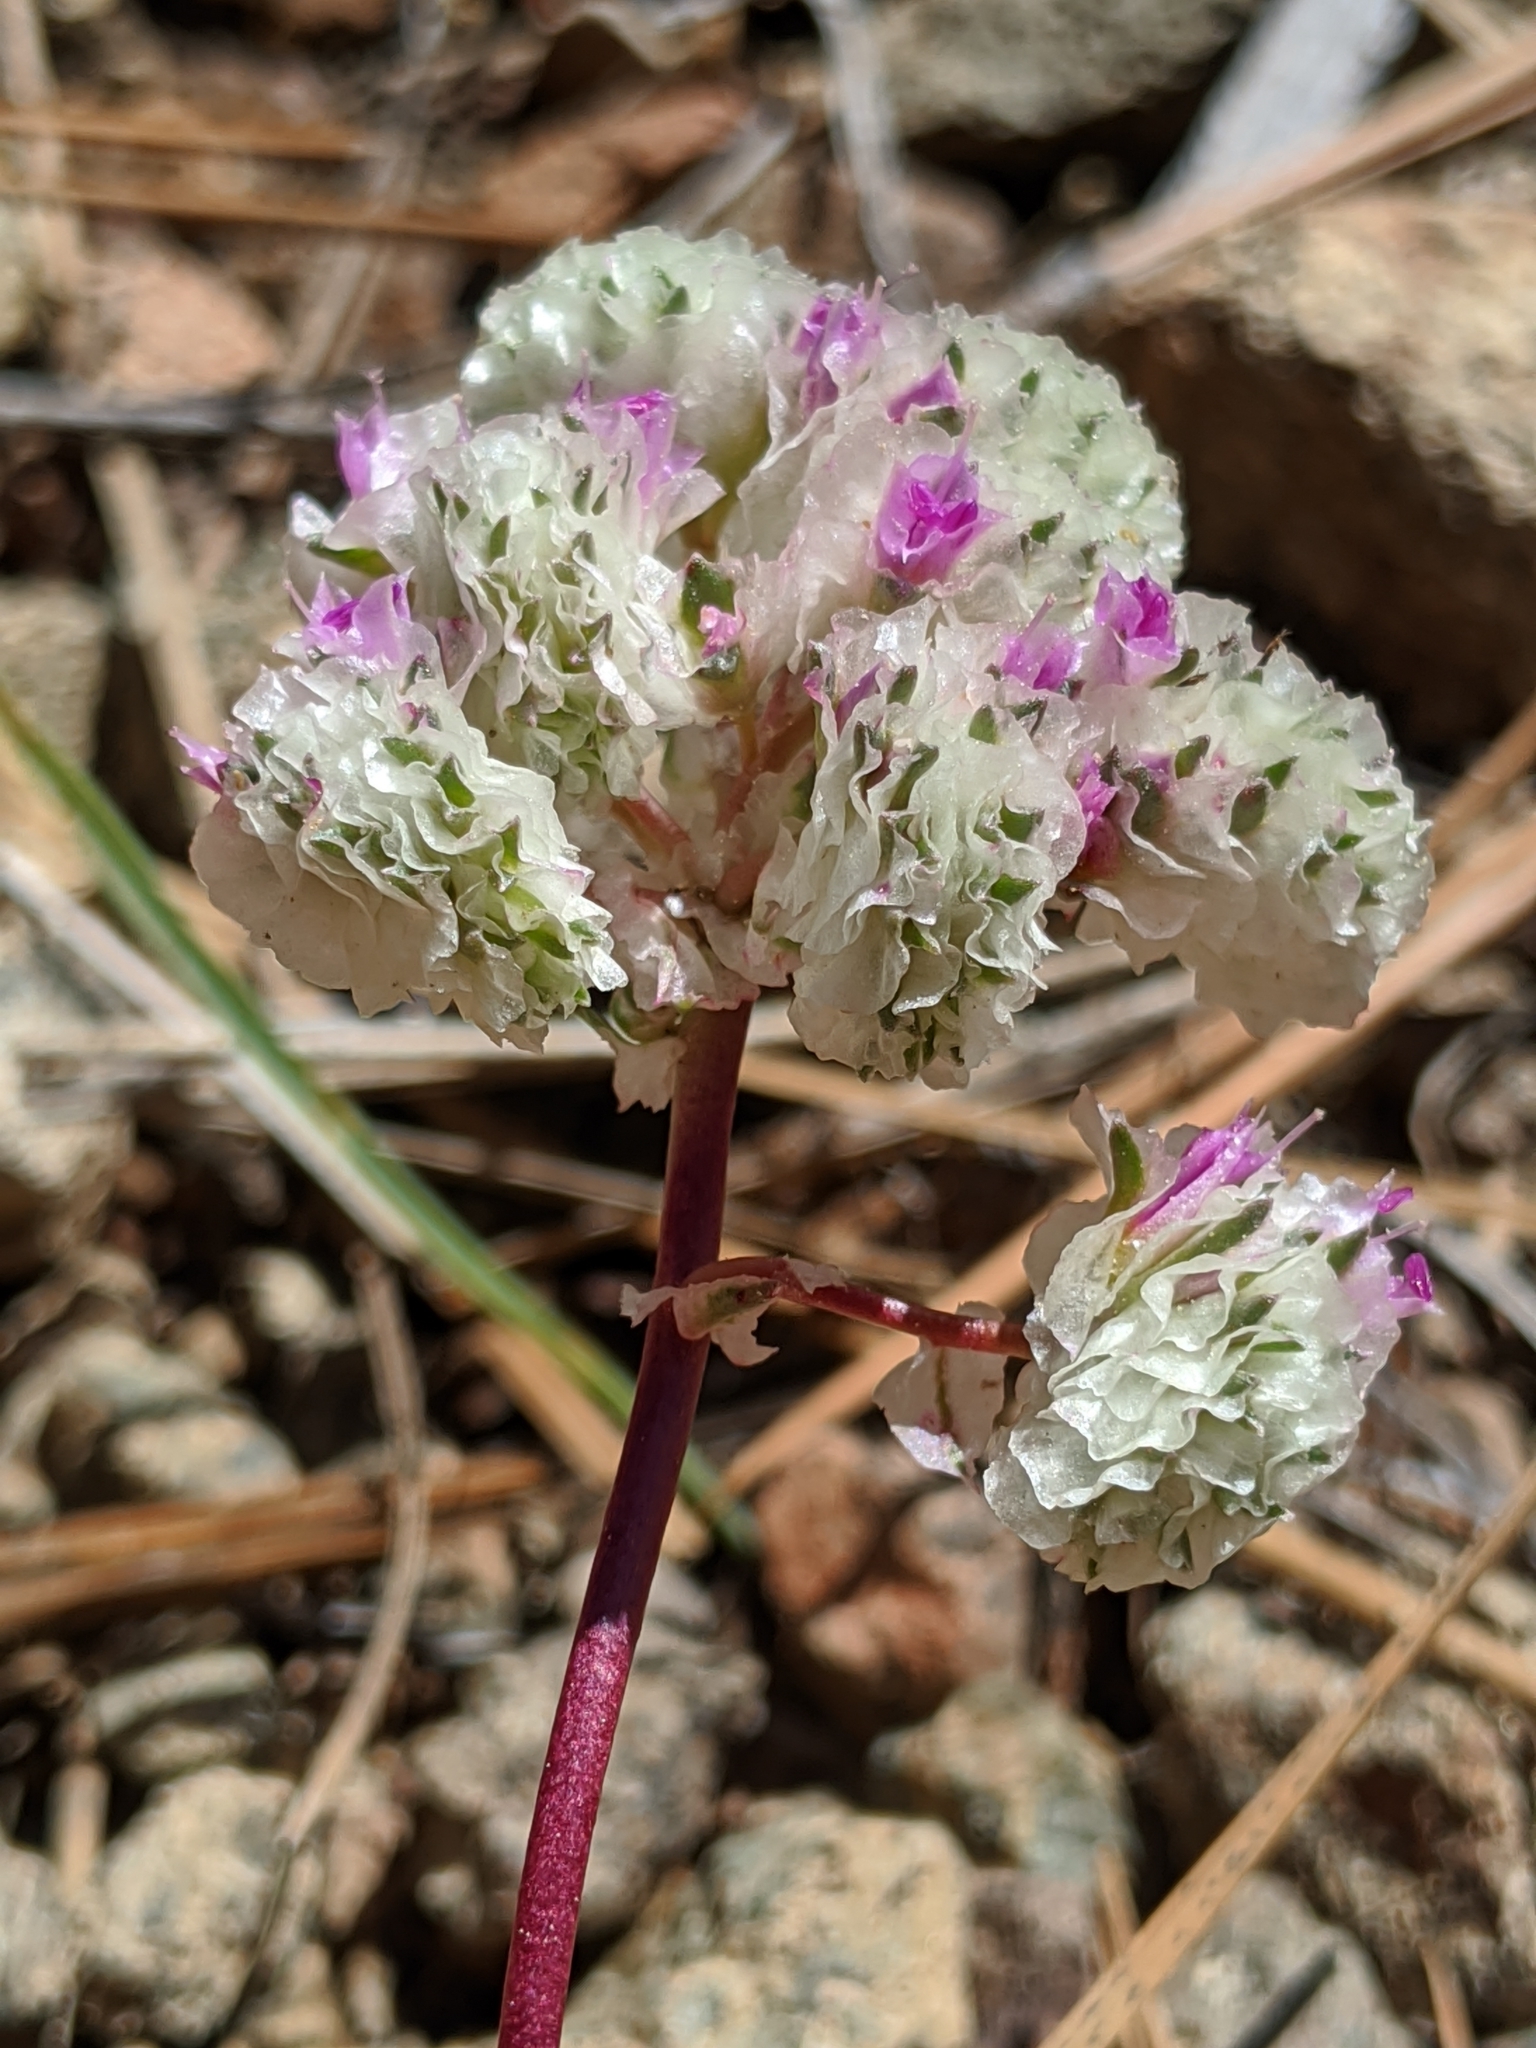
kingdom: Plantae
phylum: Tracheophyta
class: Magnoliopsida
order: Caryophyllales
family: Montiaceae
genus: Calyptridium
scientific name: Calyptridium monospermum
